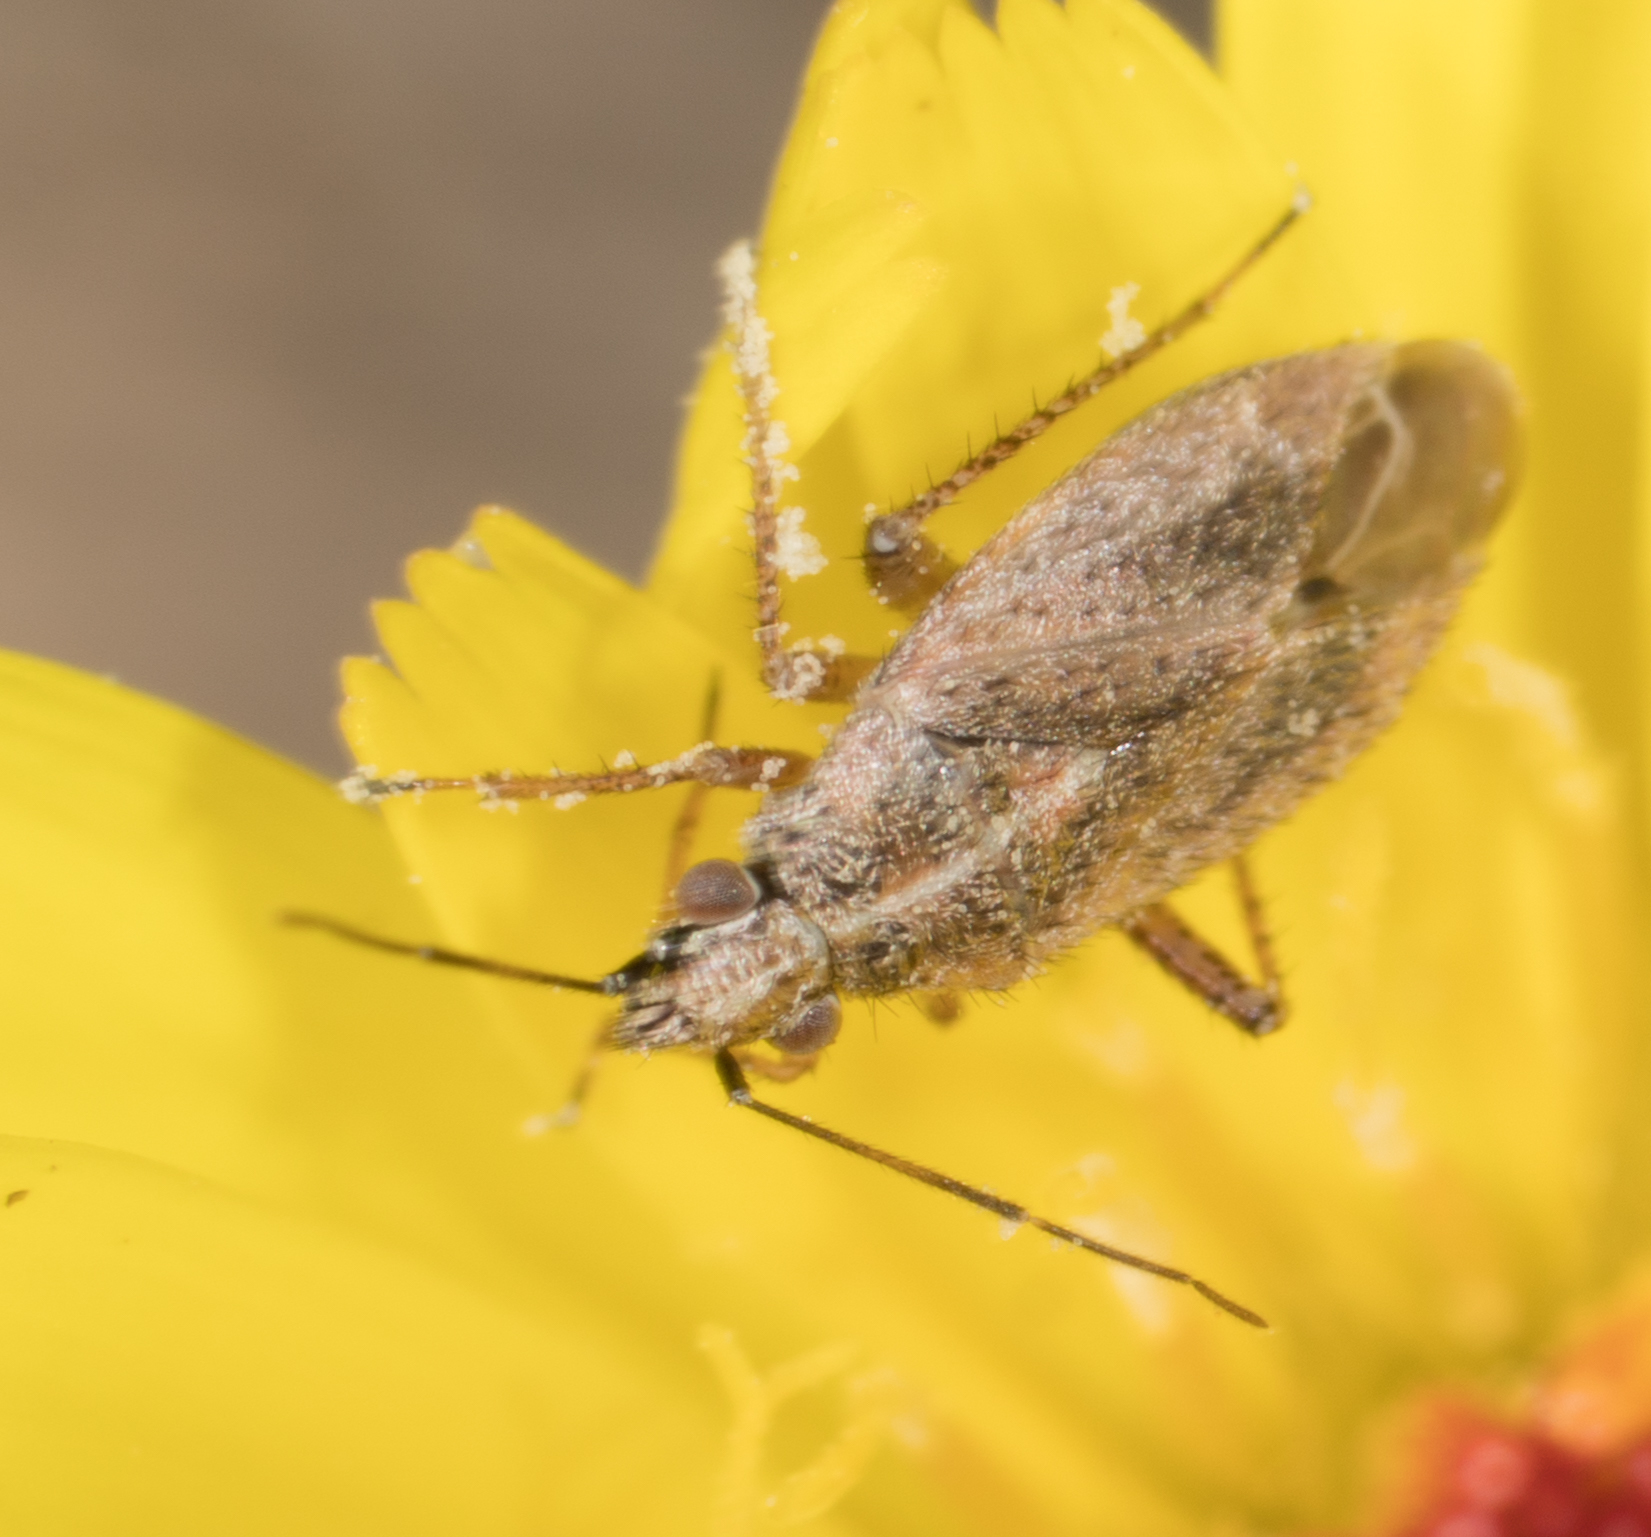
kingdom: Animalia
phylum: Arthropoda
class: Insecta
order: Hemiptera
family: Miridae
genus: Hoplomachidea
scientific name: Hoplomachidea consors
